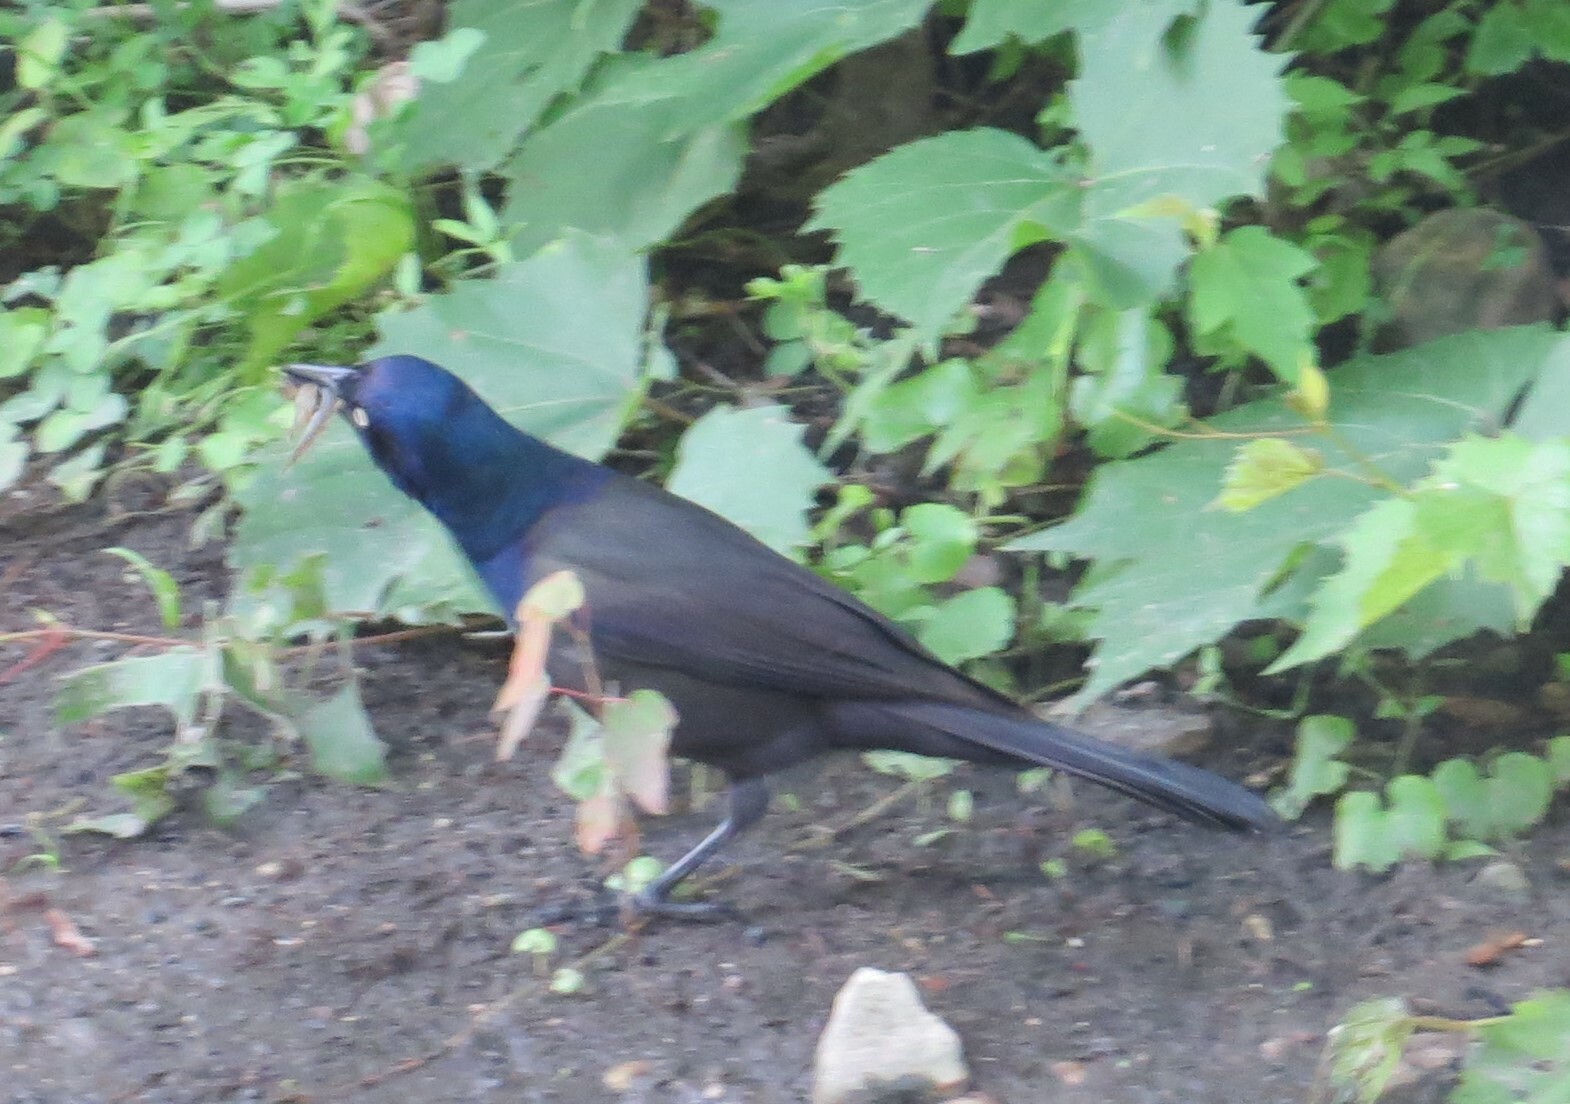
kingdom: Animalia
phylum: Chordata
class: Aves
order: Passeriformes
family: Icteridae
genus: Quiscalus
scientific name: Quiscalus quiscula
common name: Common grackle
